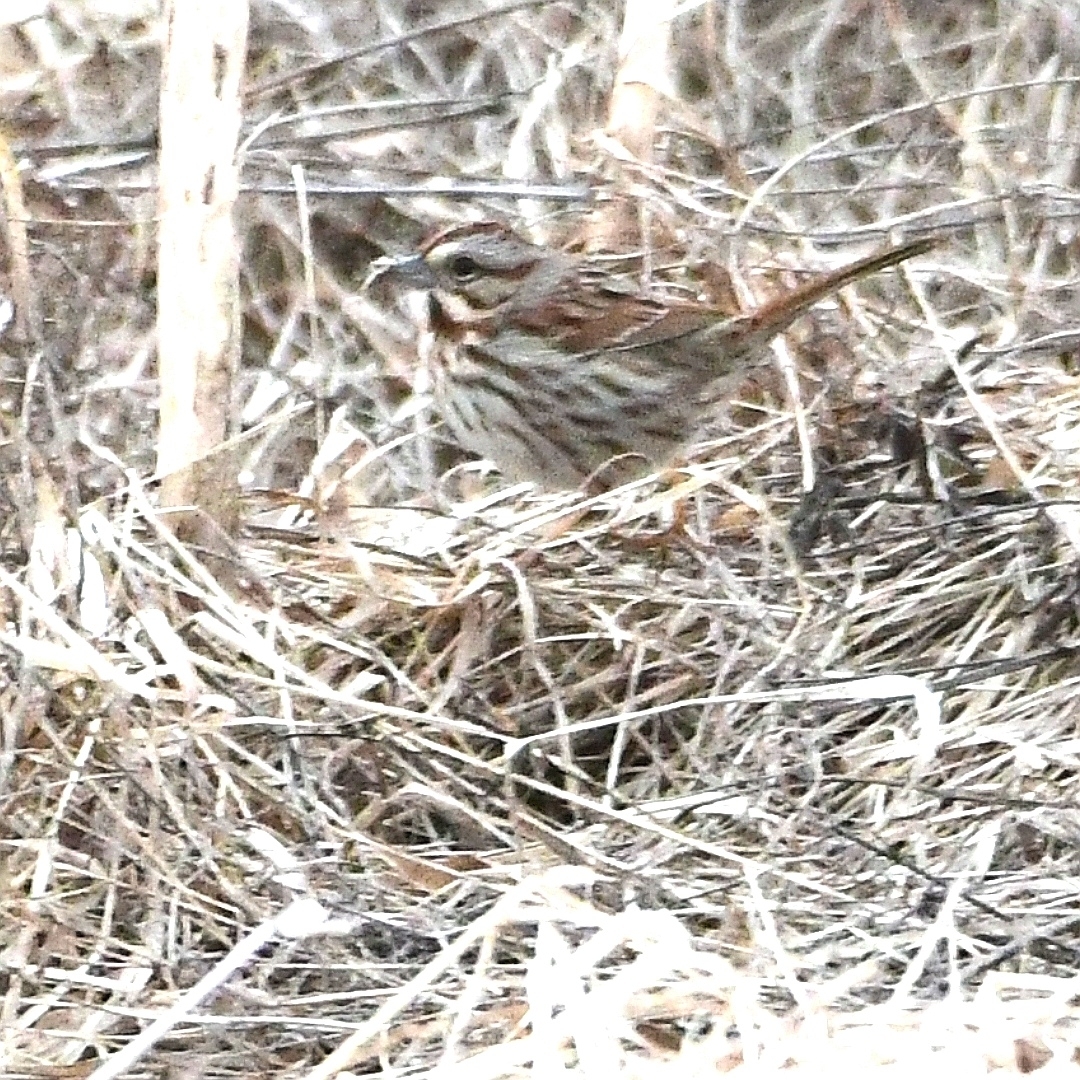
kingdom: Animalia
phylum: Chordata
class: Aves
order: Passeriformes
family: Passerellidae
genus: Melospiza
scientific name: Melospiza melodia
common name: Song sparrow
